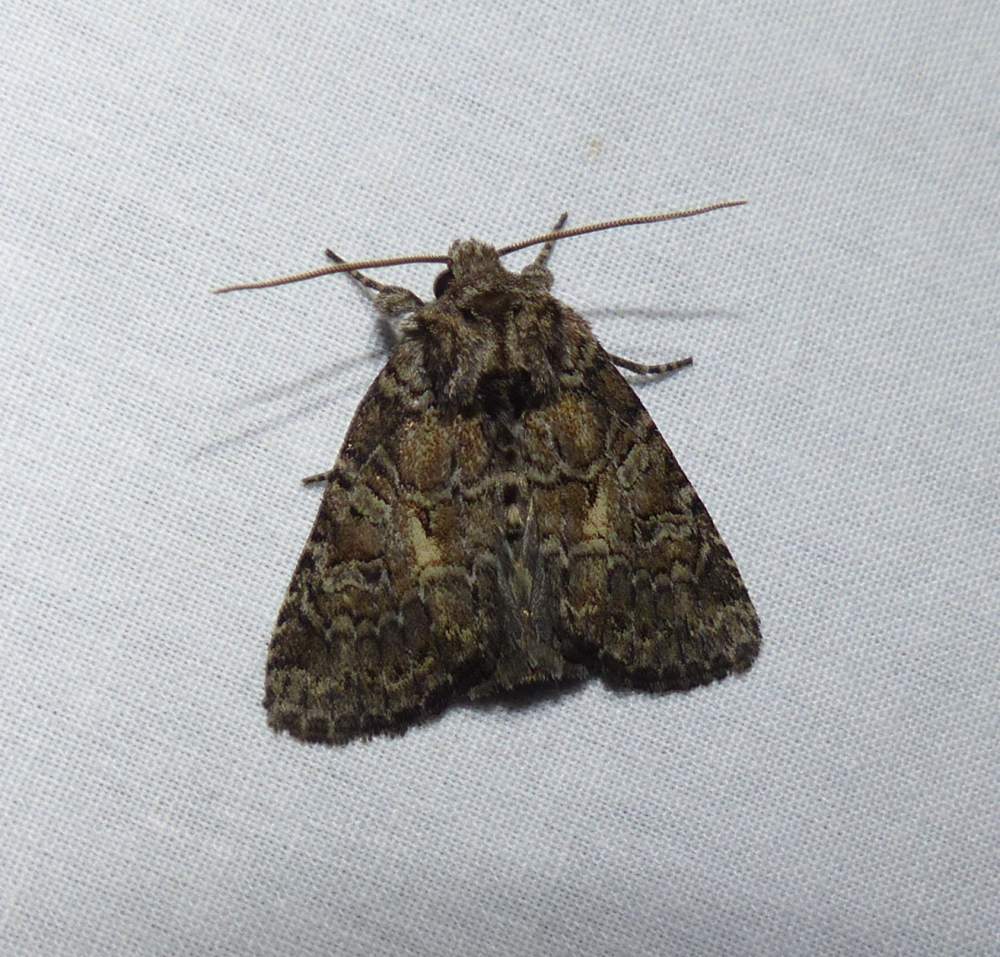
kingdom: Animalia
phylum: Arthropoda
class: Insecta
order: Lepidoptera
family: Noctuidae
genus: Orthodes
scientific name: Orthodes detracta
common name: Disparaged arches moth
